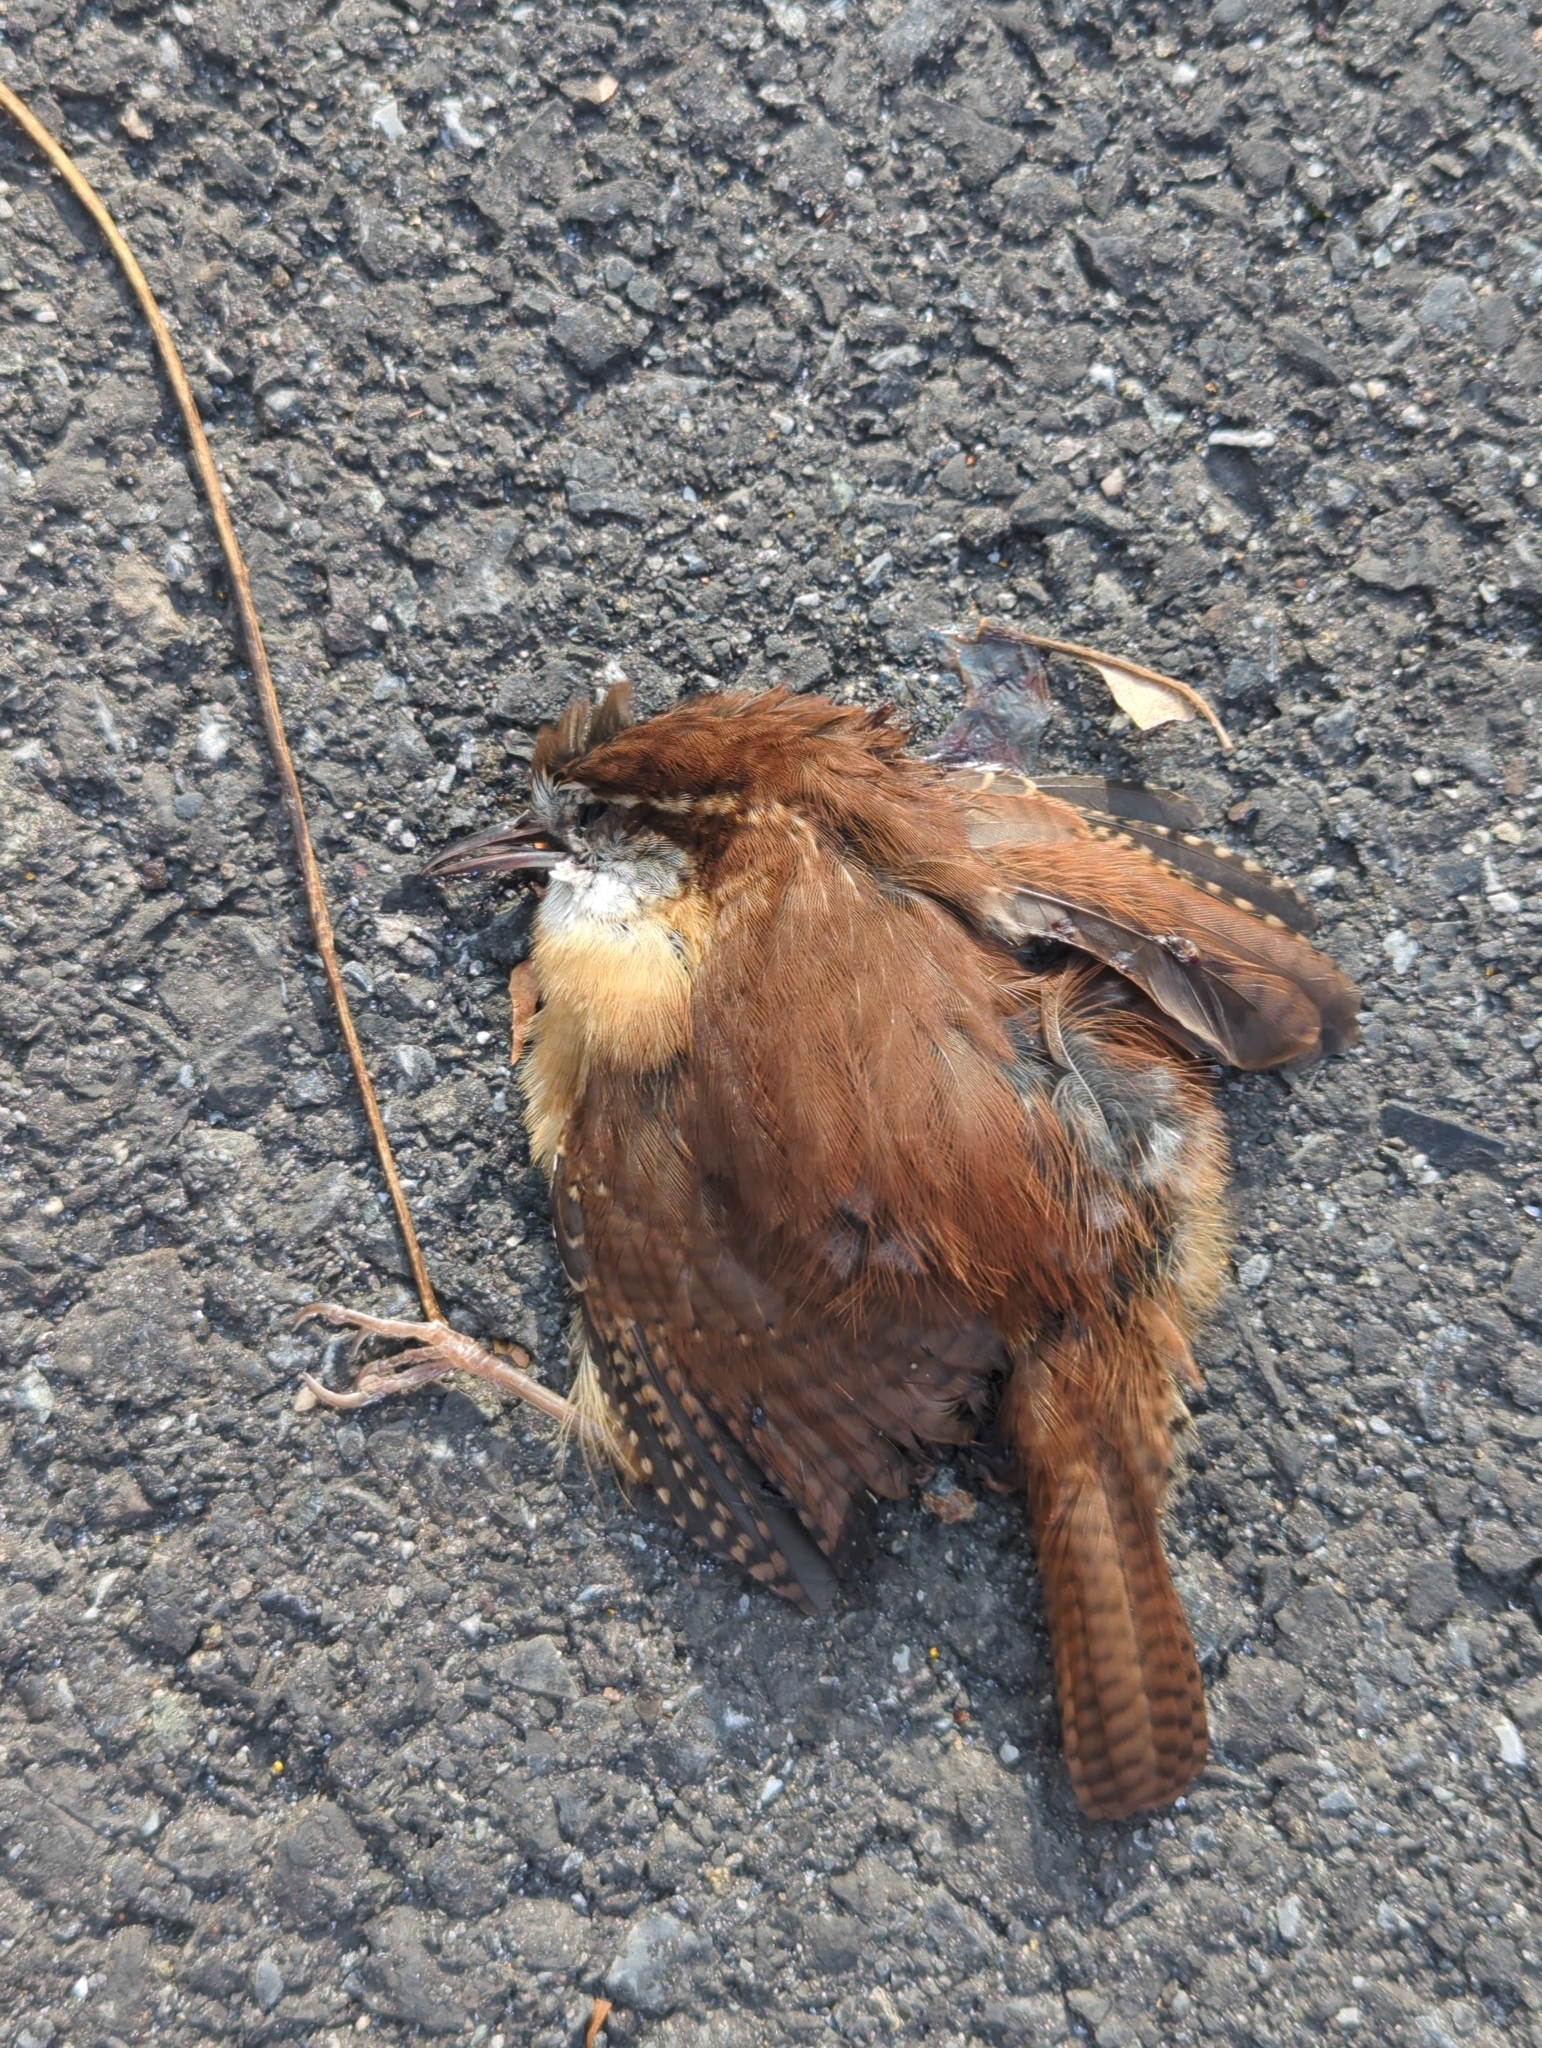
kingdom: Animalia
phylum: Chordata
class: Aves
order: Passeriformes
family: Troglodytidae
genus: Thryothorus
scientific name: Thryothorus ludovicianus
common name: Carolina wren
